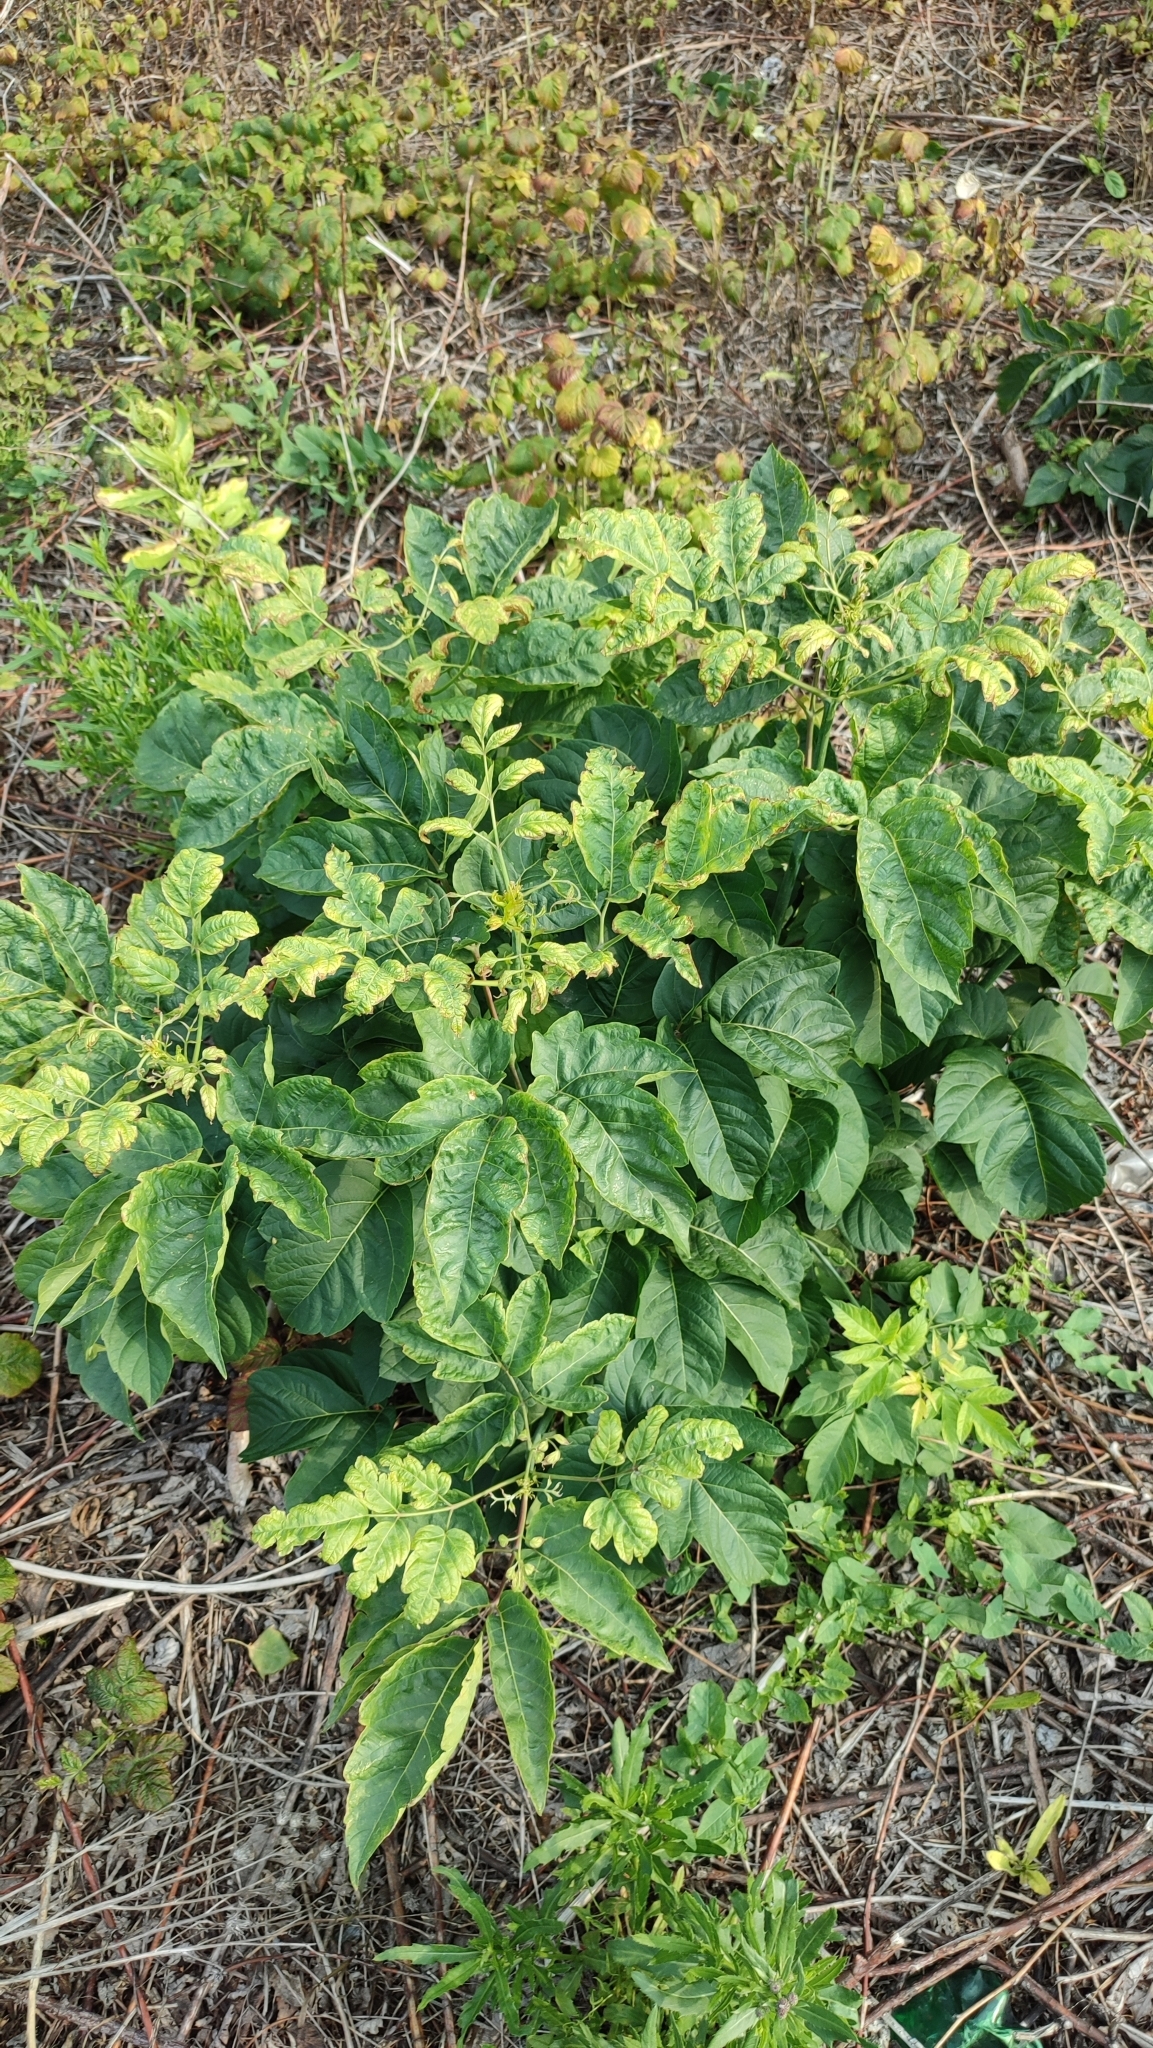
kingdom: Plantae
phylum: Tracheophyta
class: Magnoliopsida
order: Sapindales
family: Sapindaceae
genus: Acer
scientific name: Acer negundo
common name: Ashleaf maple
